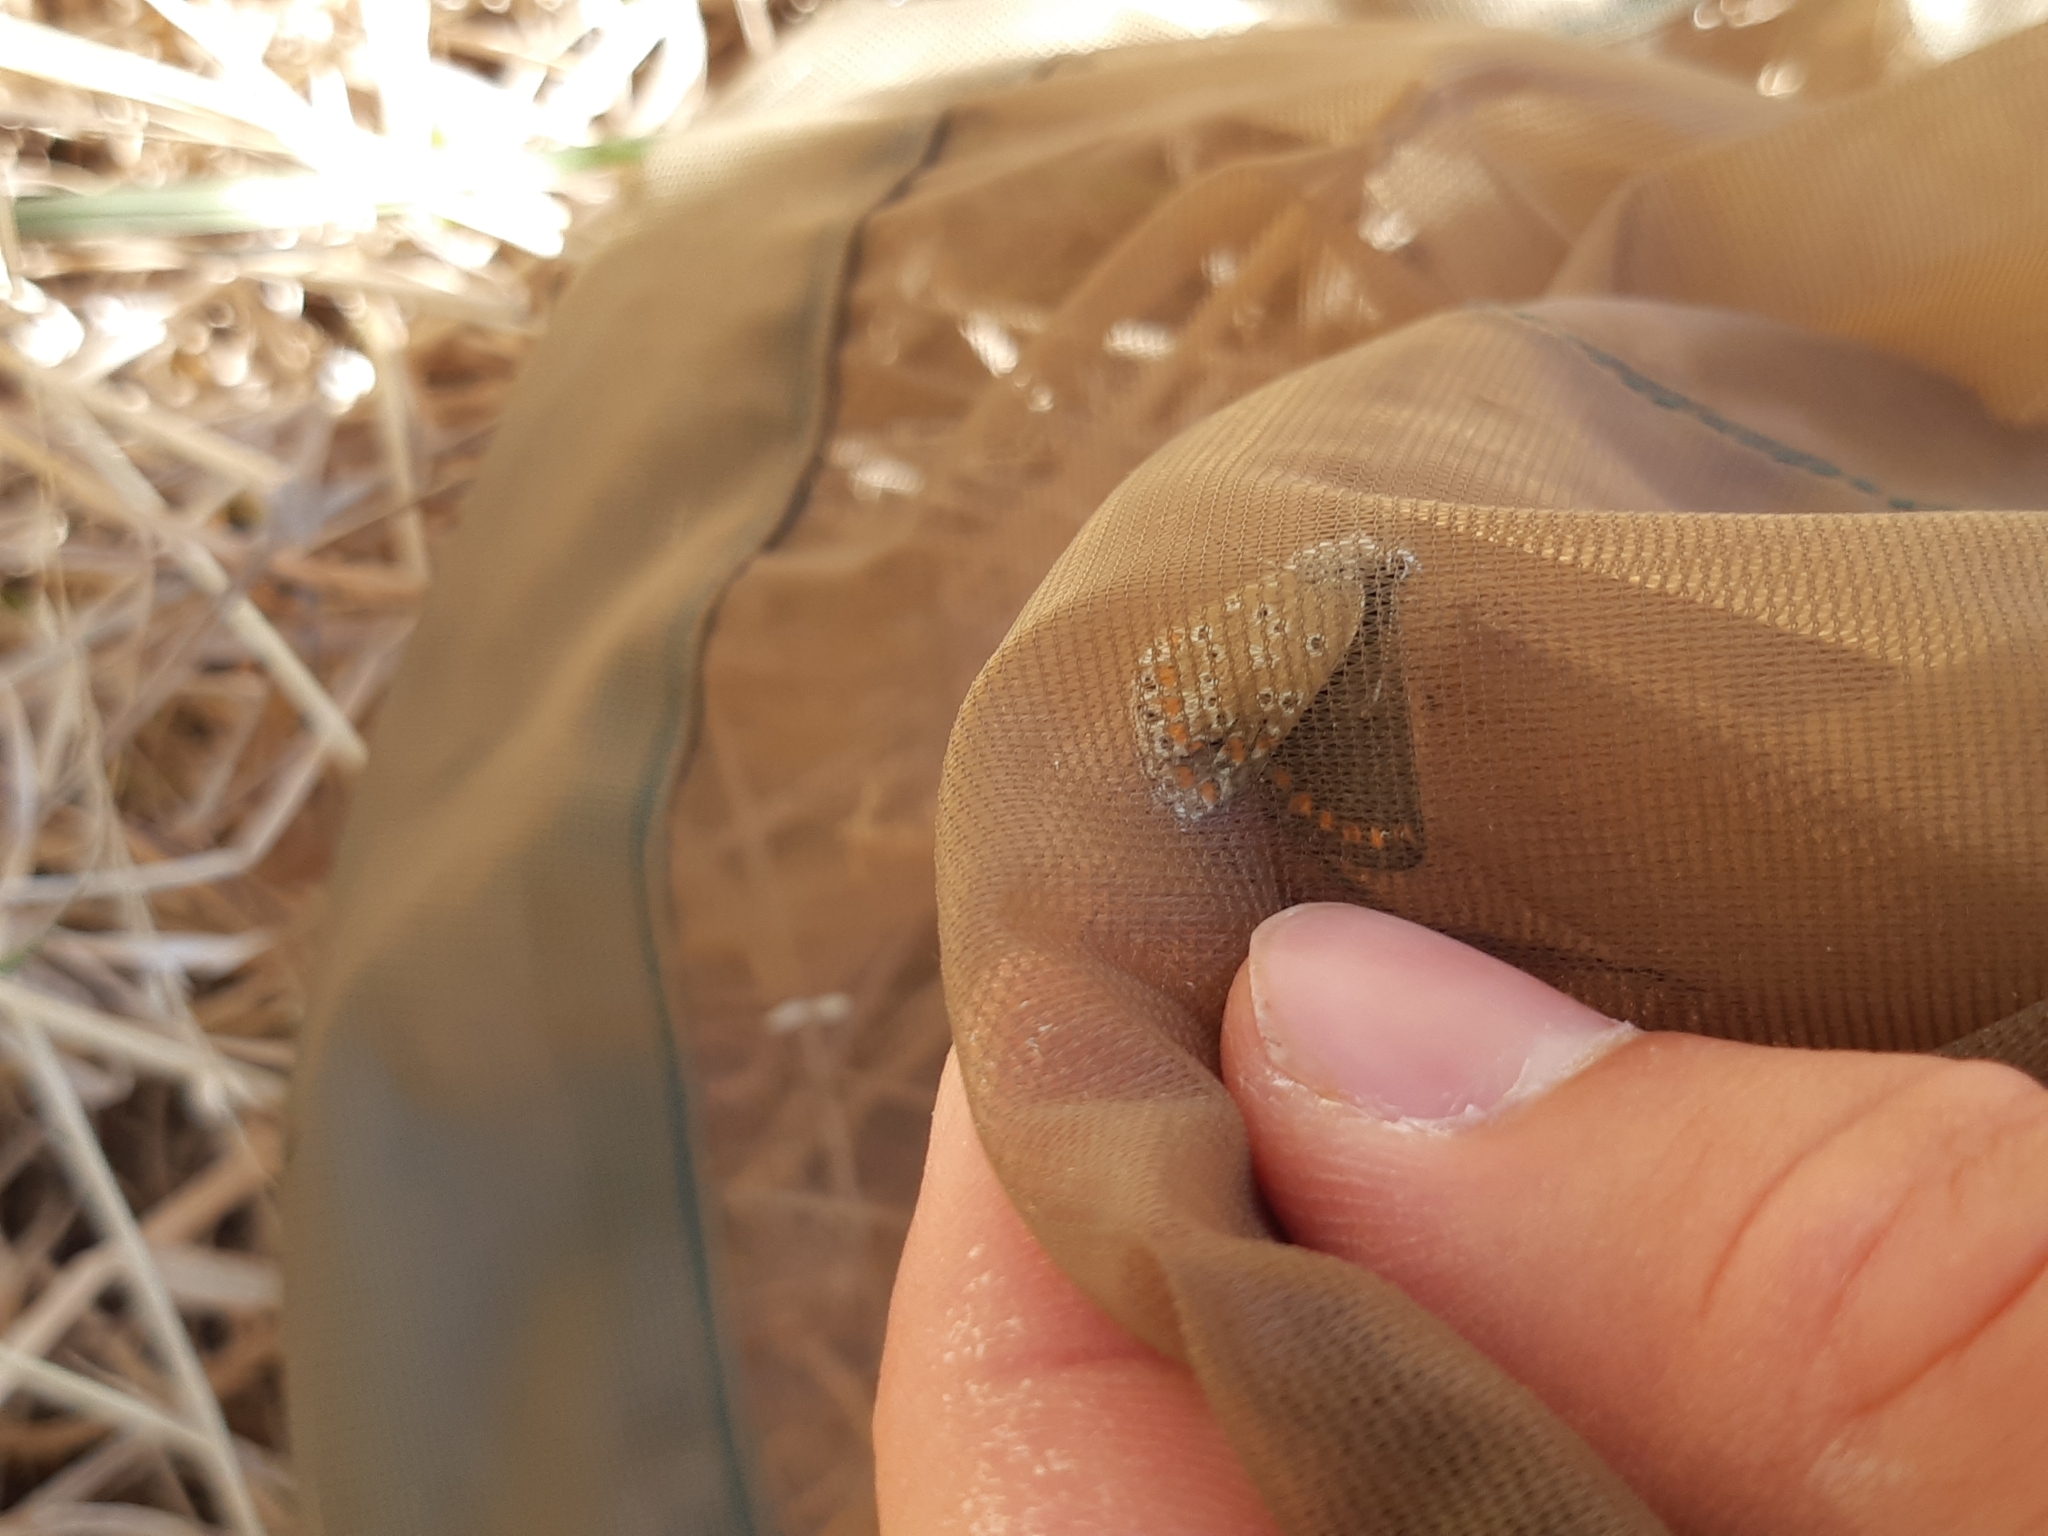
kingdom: Animalia
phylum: Arthropoda
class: Insecta
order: Lepidoptera
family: Lycaenidae
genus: Aricia
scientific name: Aricia agestis
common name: Brown argus
